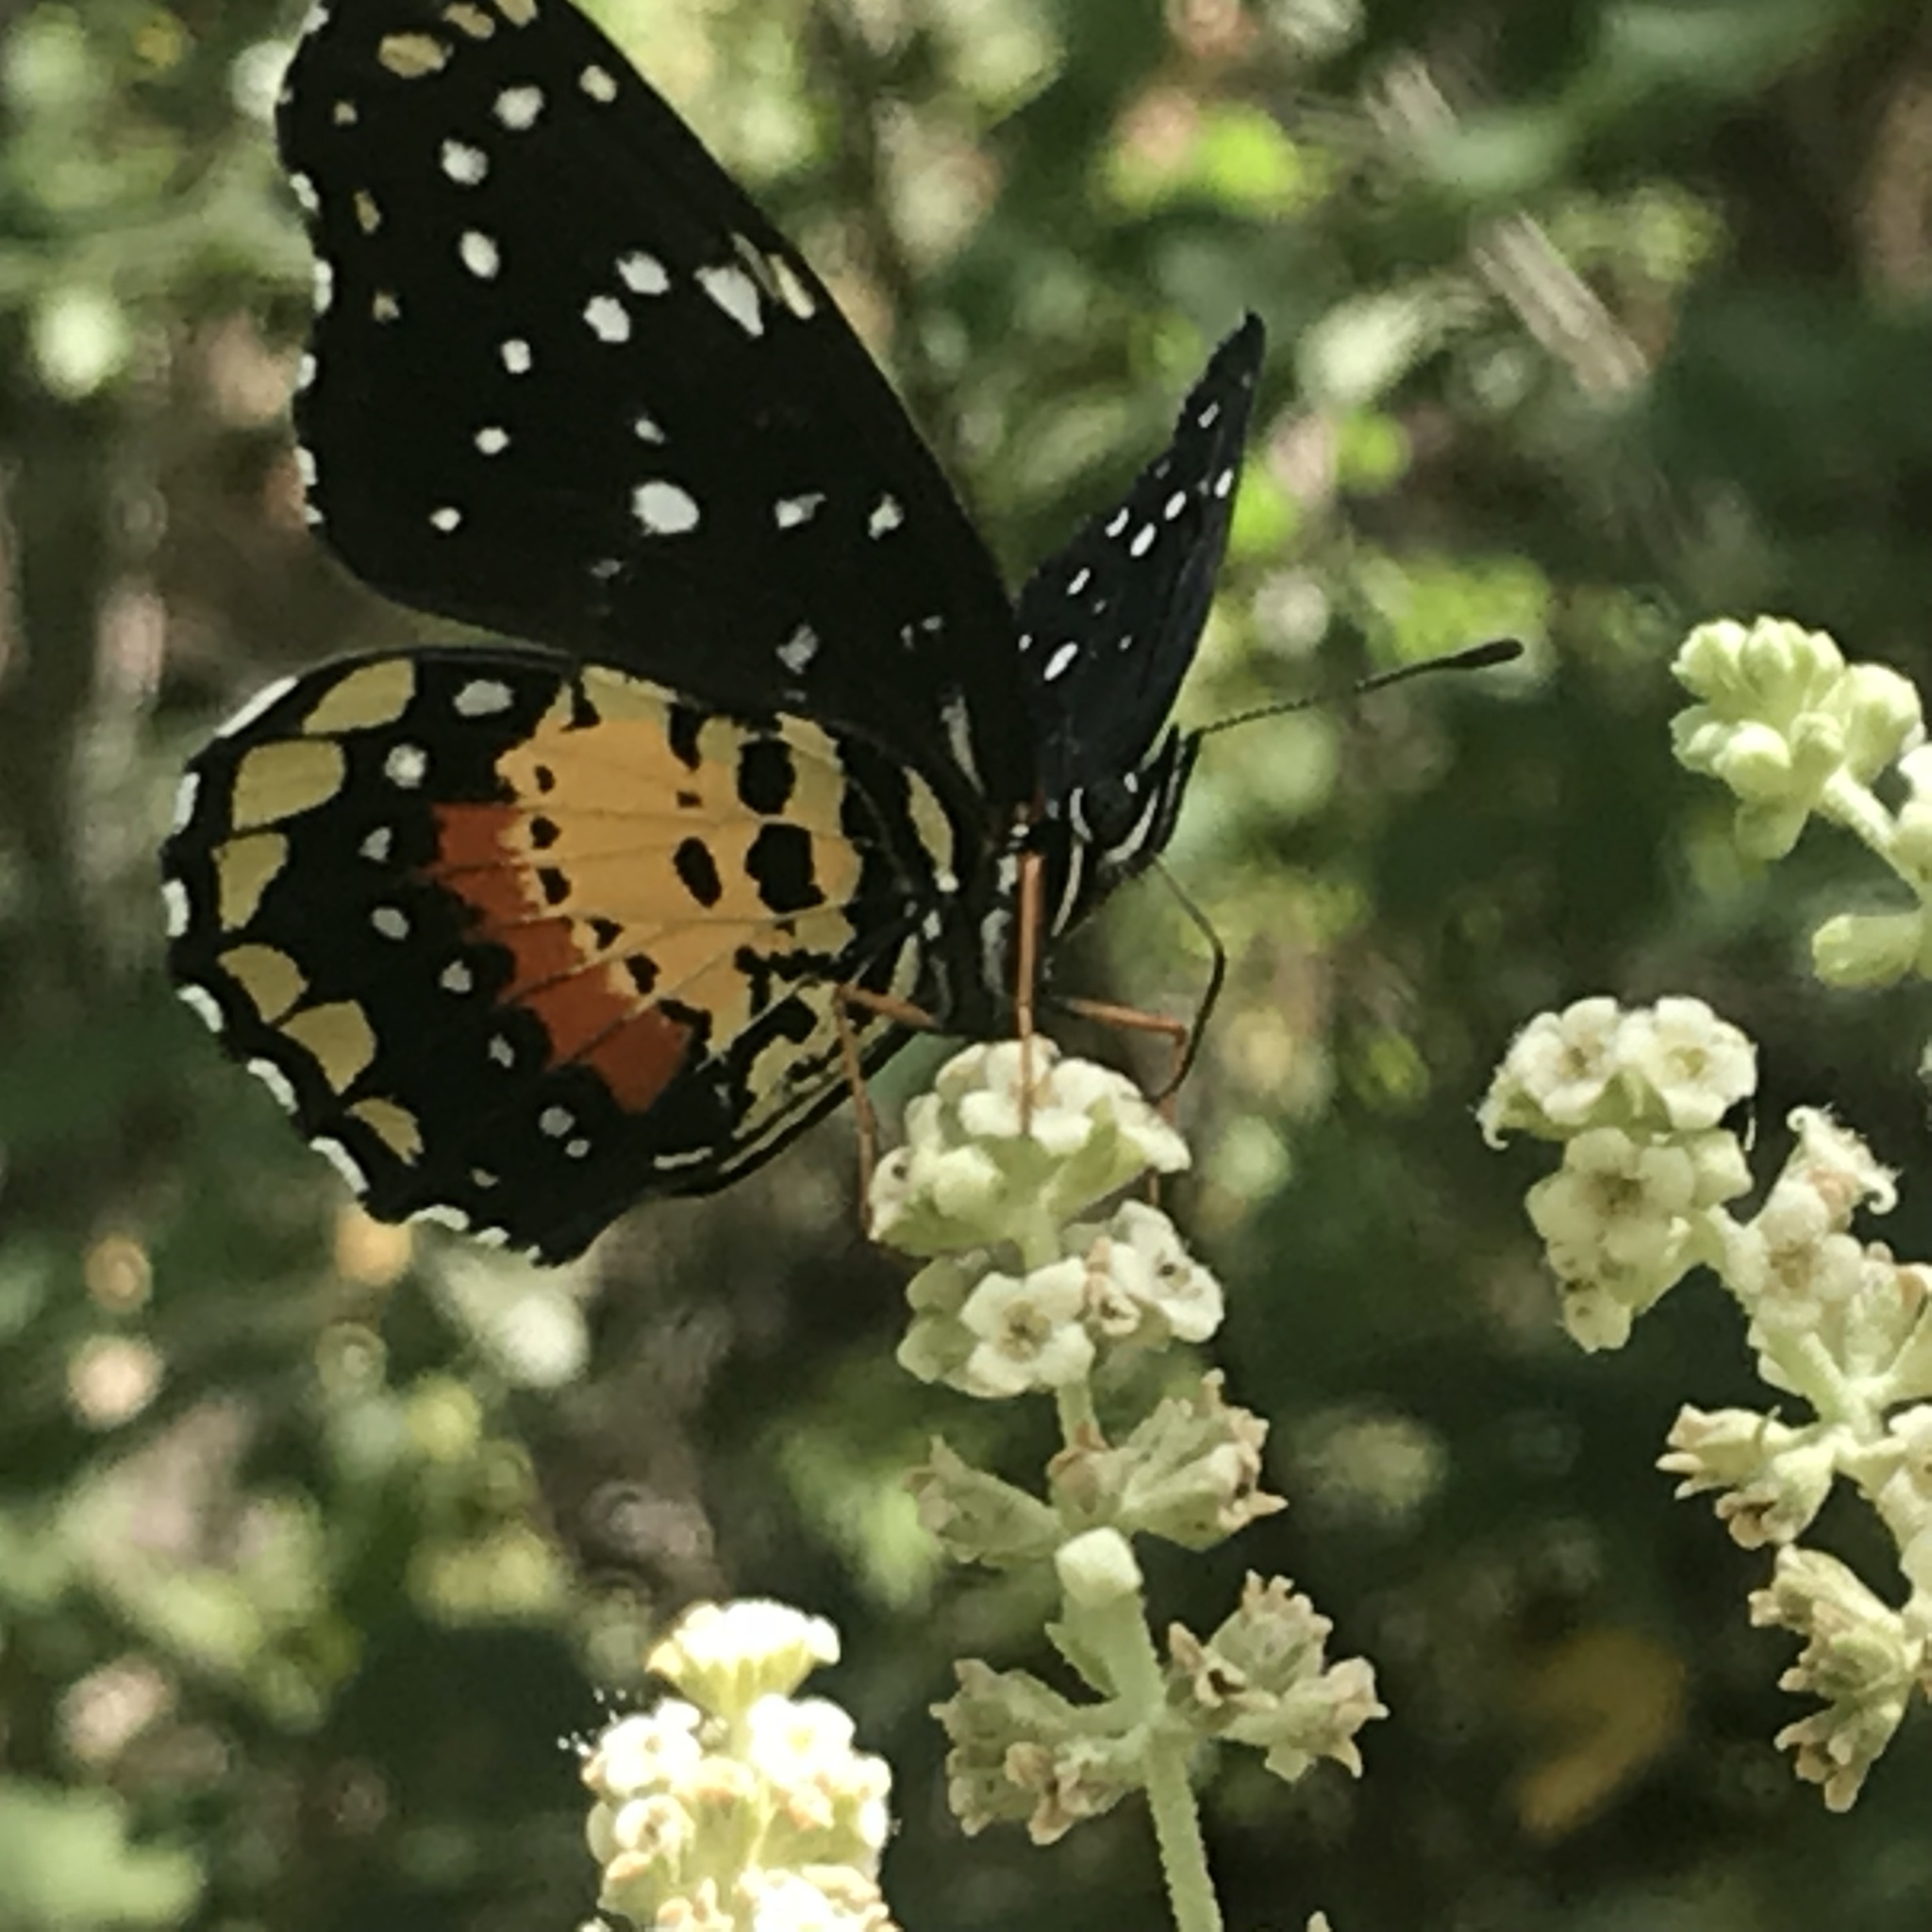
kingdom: Animalia
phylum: Arthropoda
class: Insecta
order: Lepidoptera
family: Nymphalidae
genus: Chlosyne
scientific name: Chlosyne janais
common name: Crimson patch
